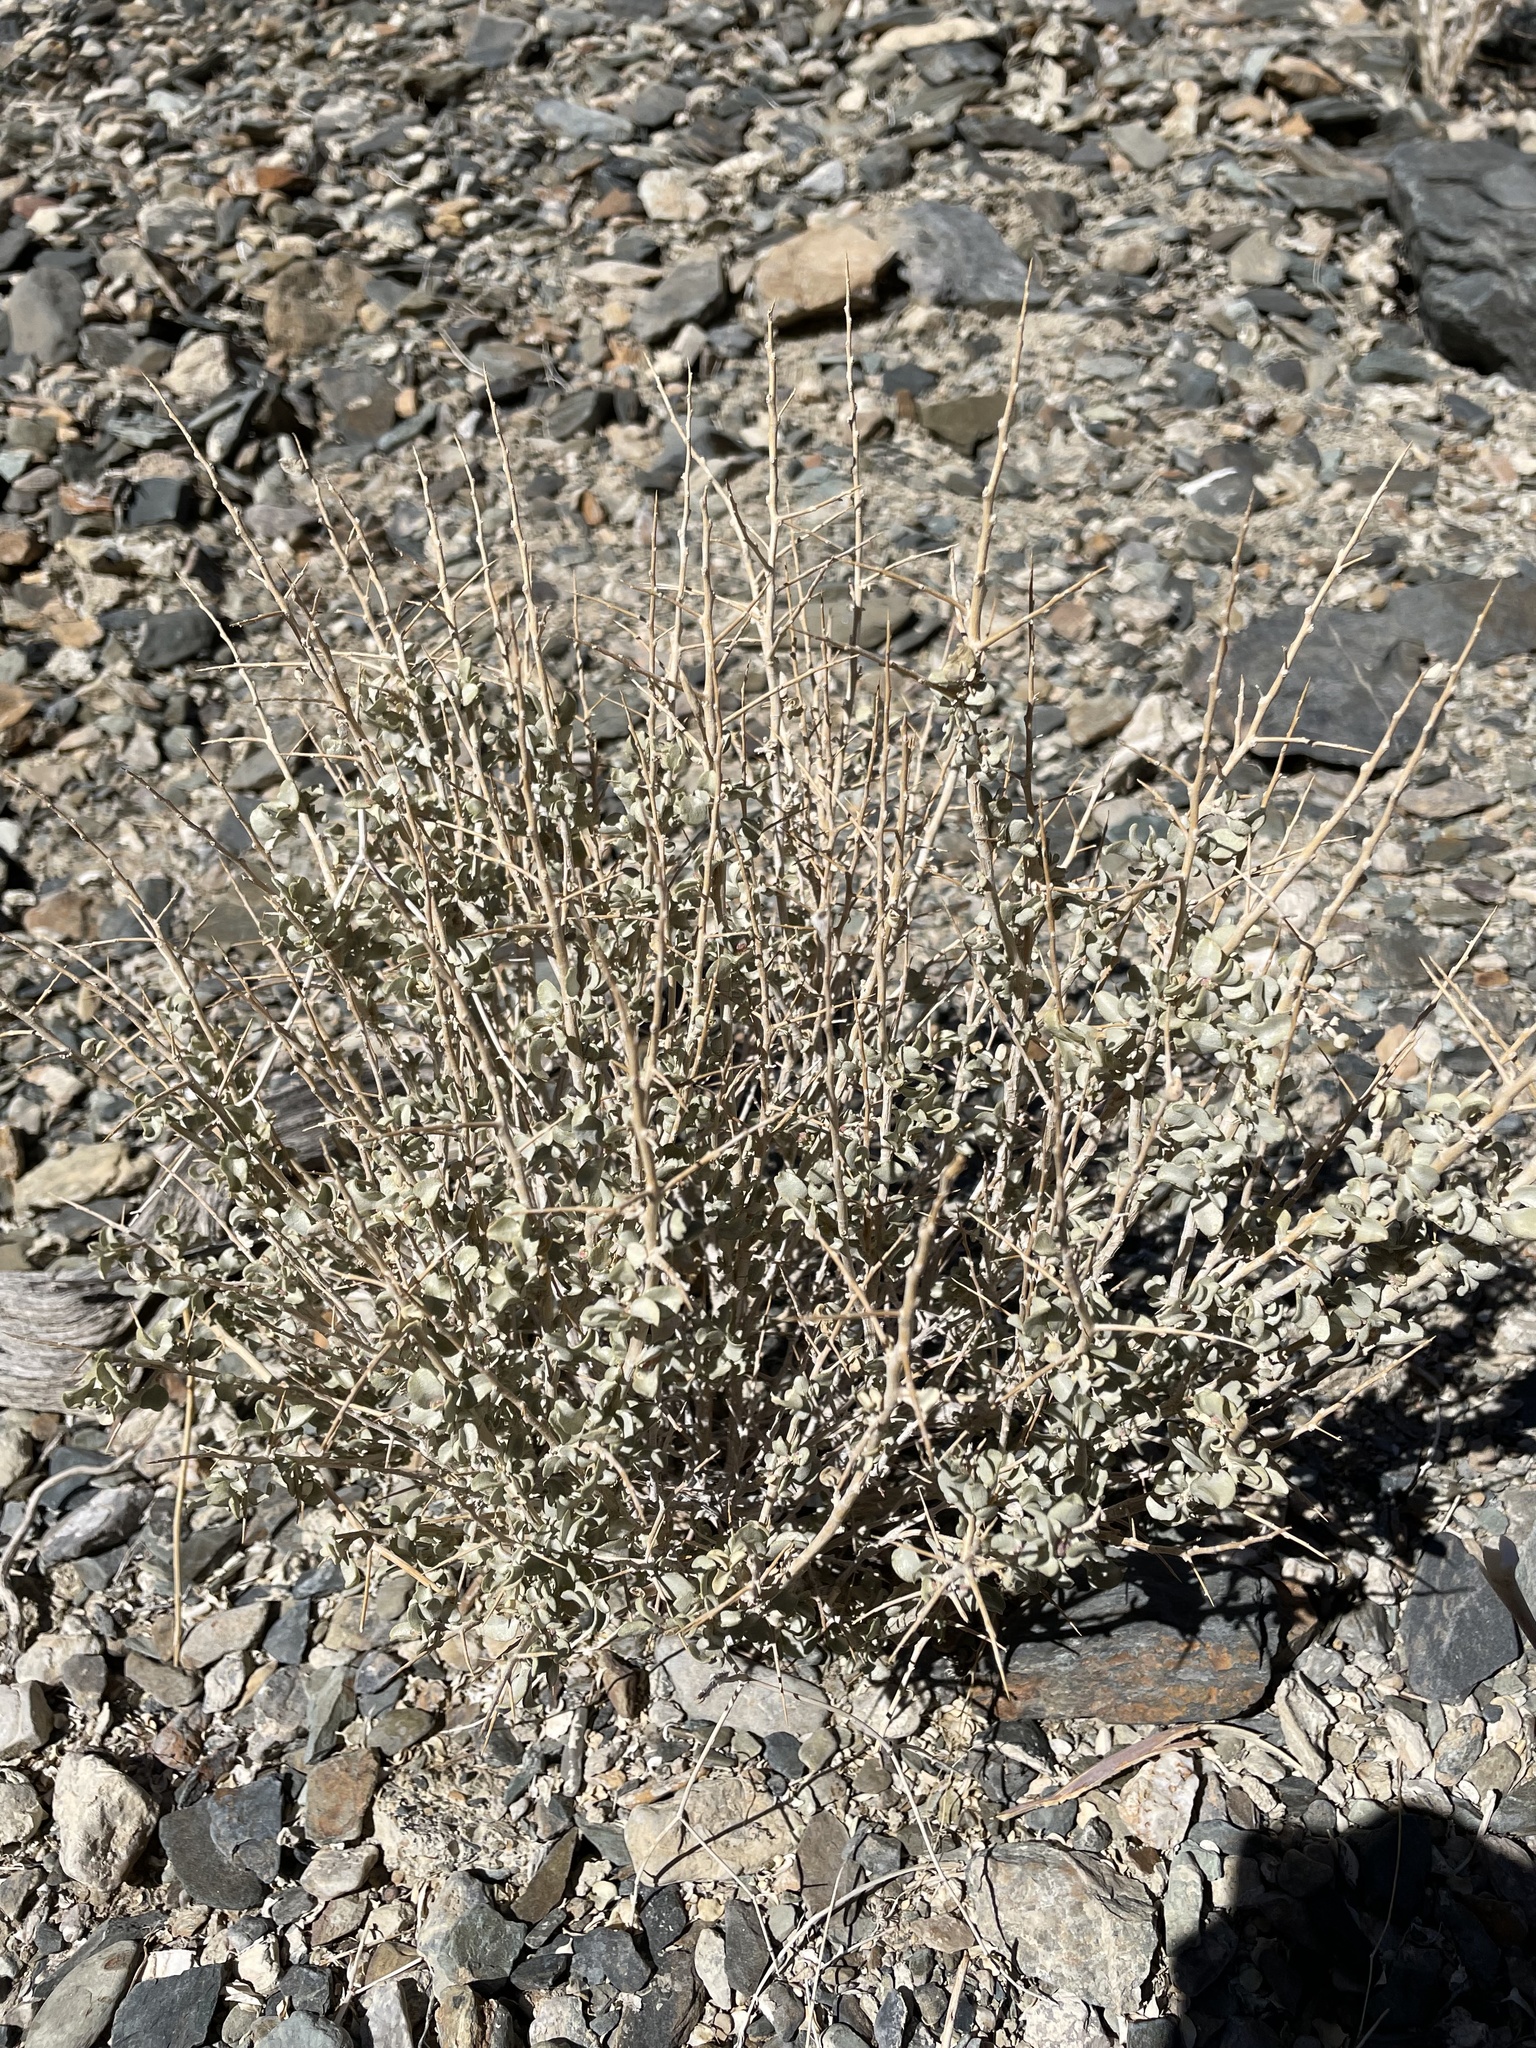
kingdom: Plantae
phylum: Tracheophyta
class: Magnoliopsida
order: Caryophyllales
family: Amaranthaceae
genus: Atriplex
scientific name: Atriplex confertifolia
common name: Shadscale
